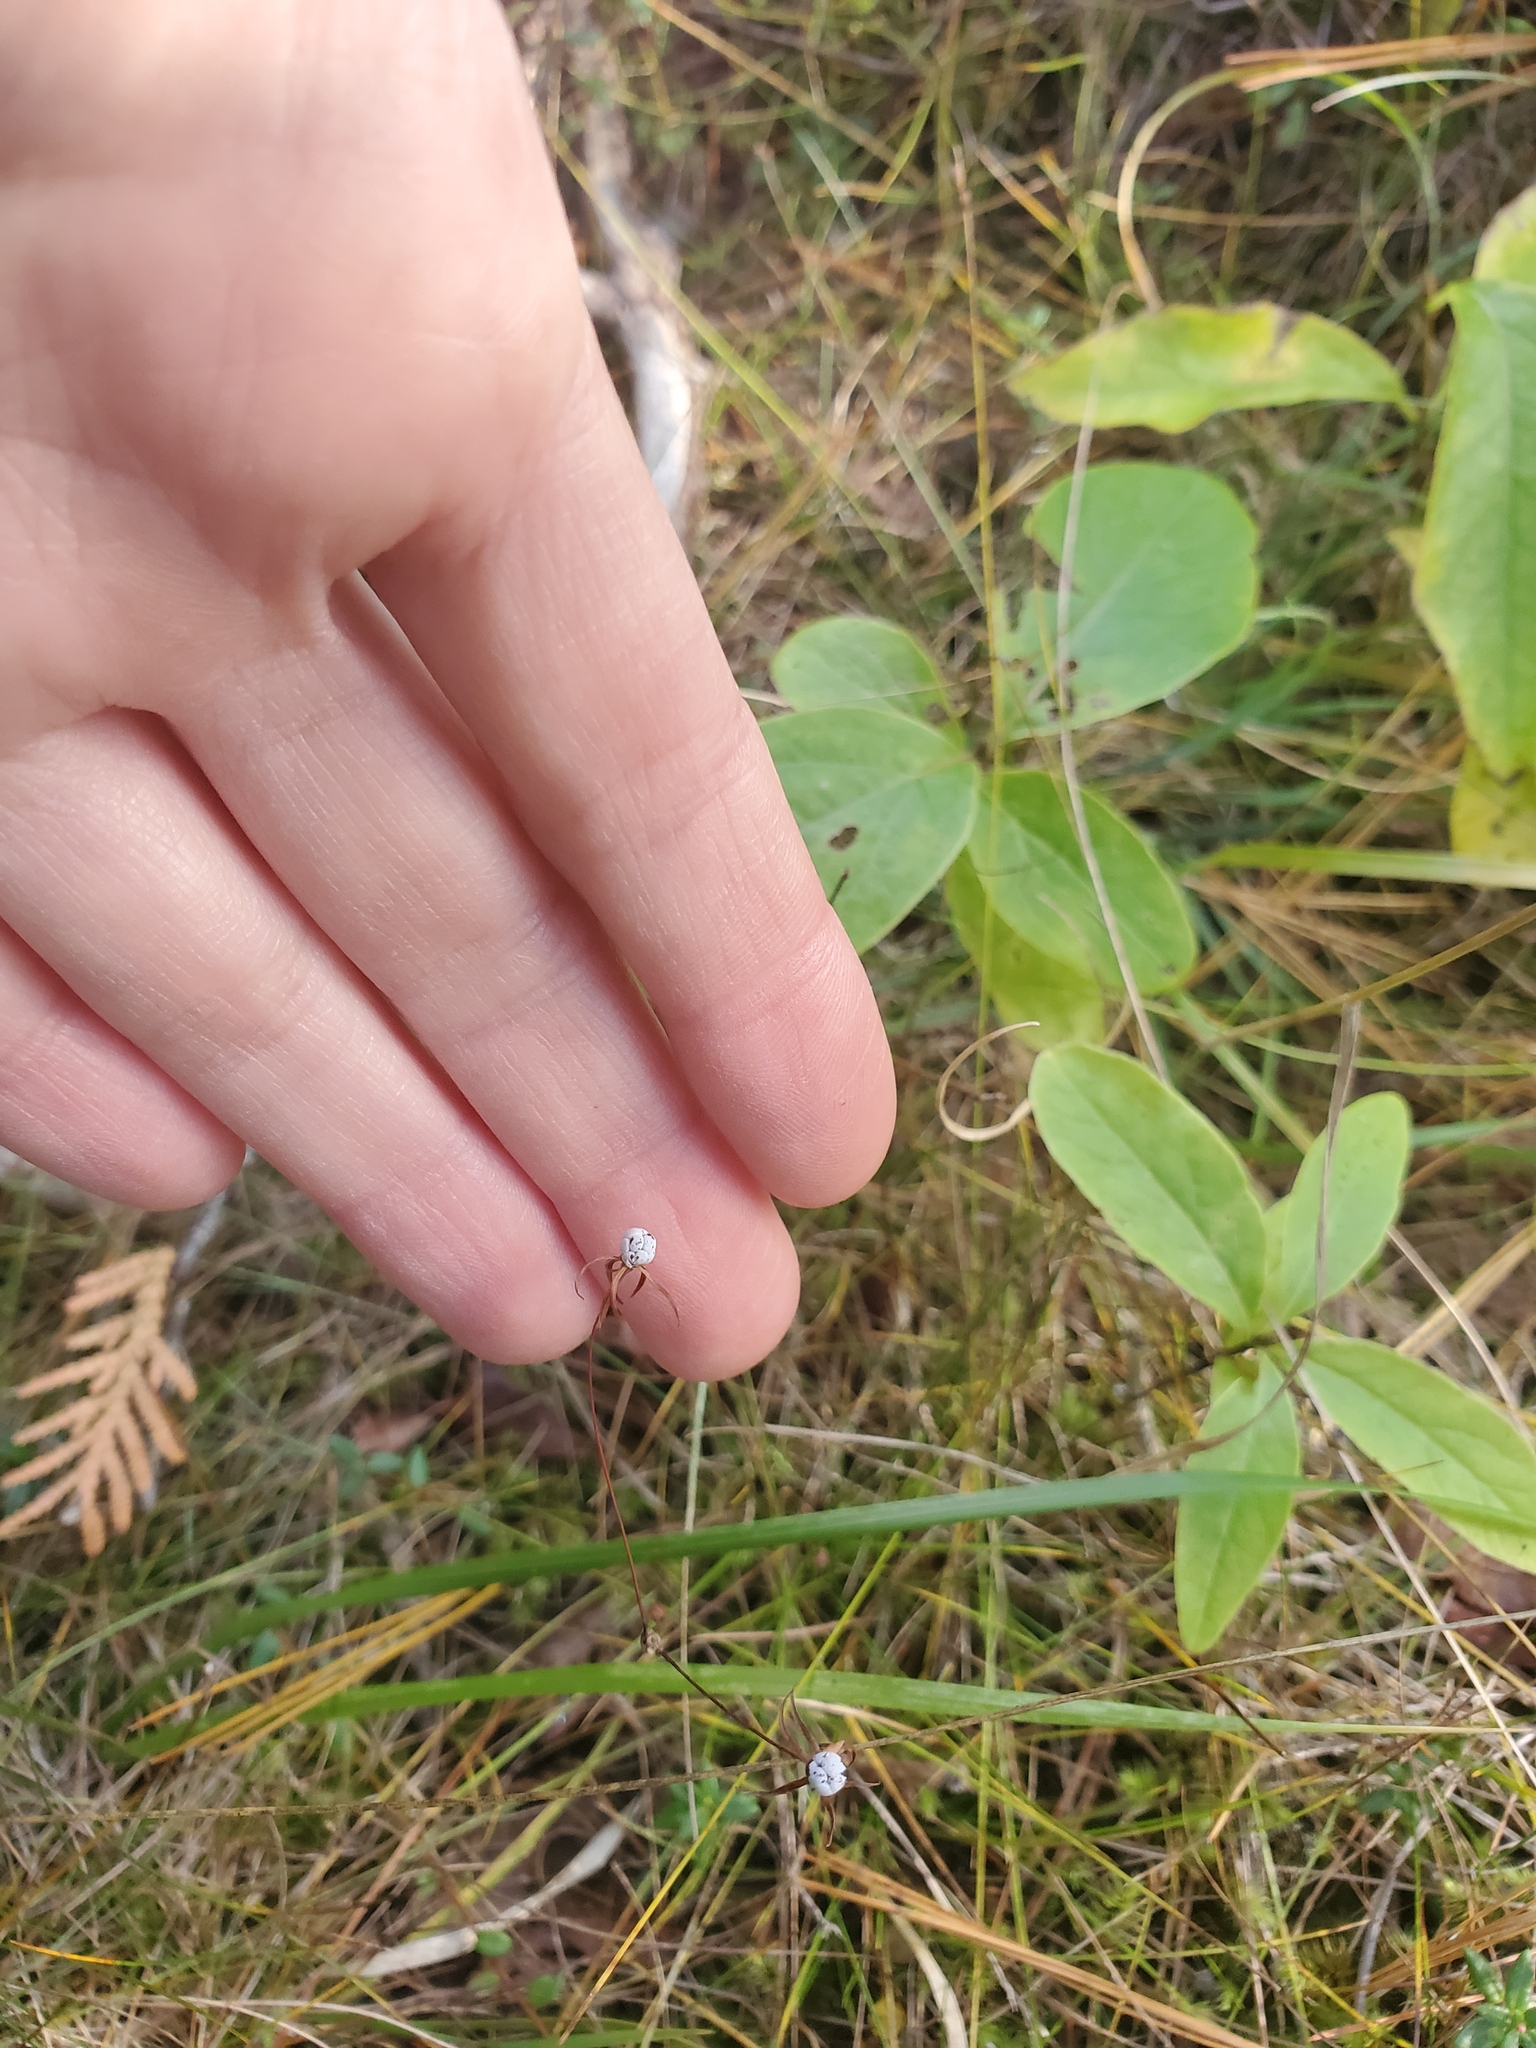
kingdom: Plantae
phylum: Tracheophyta
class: Magnoliopsida
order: Ericales
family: Primulaceae
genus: Lysimachia
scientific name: Lysimachia borealis
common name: American starflower
